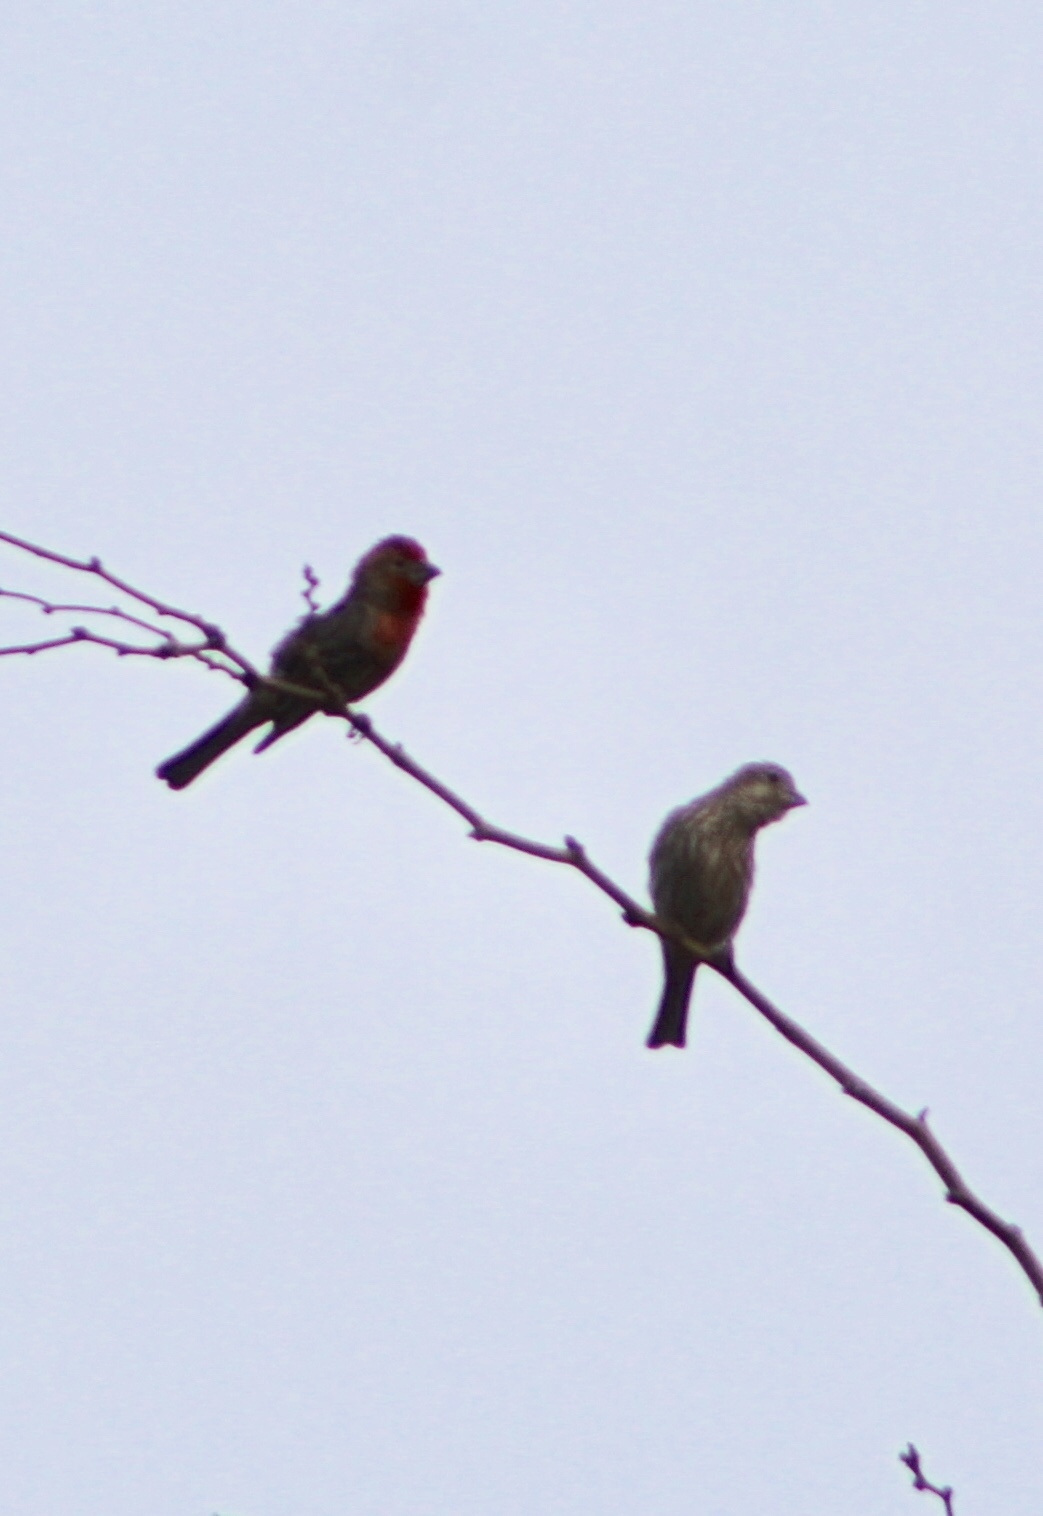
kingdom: Animalia
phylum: Chordata
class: Aves
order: Passeriformes
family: Fringillidae
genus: Haemorhous
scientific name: Haemorhous mexicanus
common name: House finch
